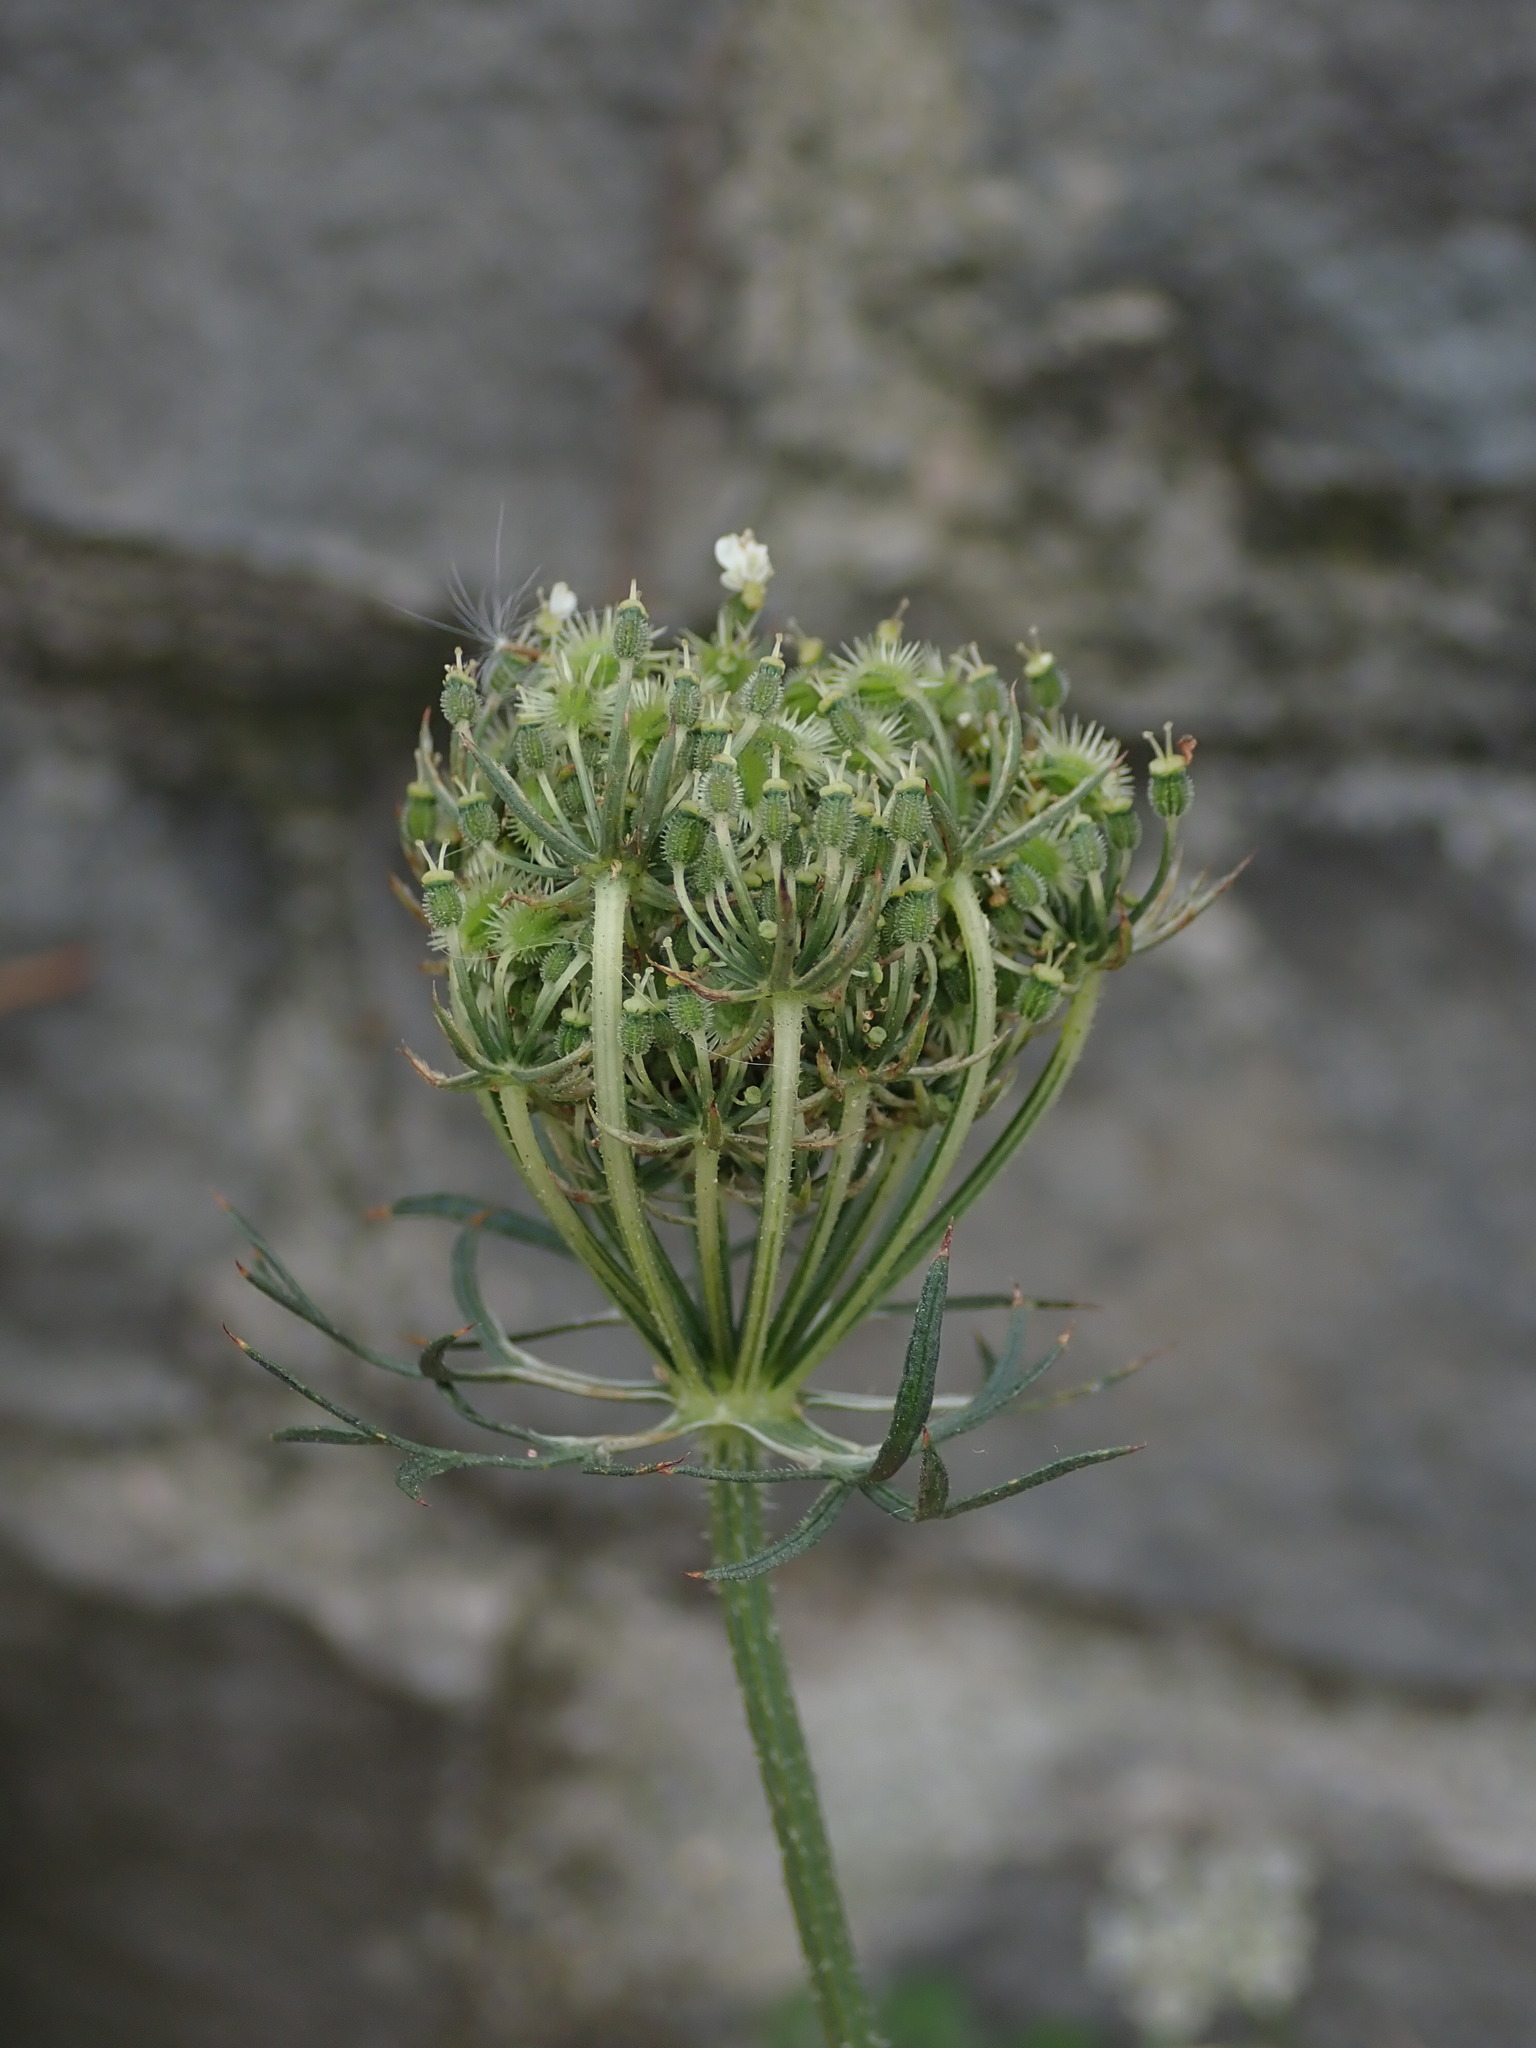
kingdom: Plantae
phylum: Tracheophyta
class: Magnoliopsida
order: Apiales
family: Apiaceae
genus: Daucus
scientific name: Daucus carota
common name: Wild carrot
